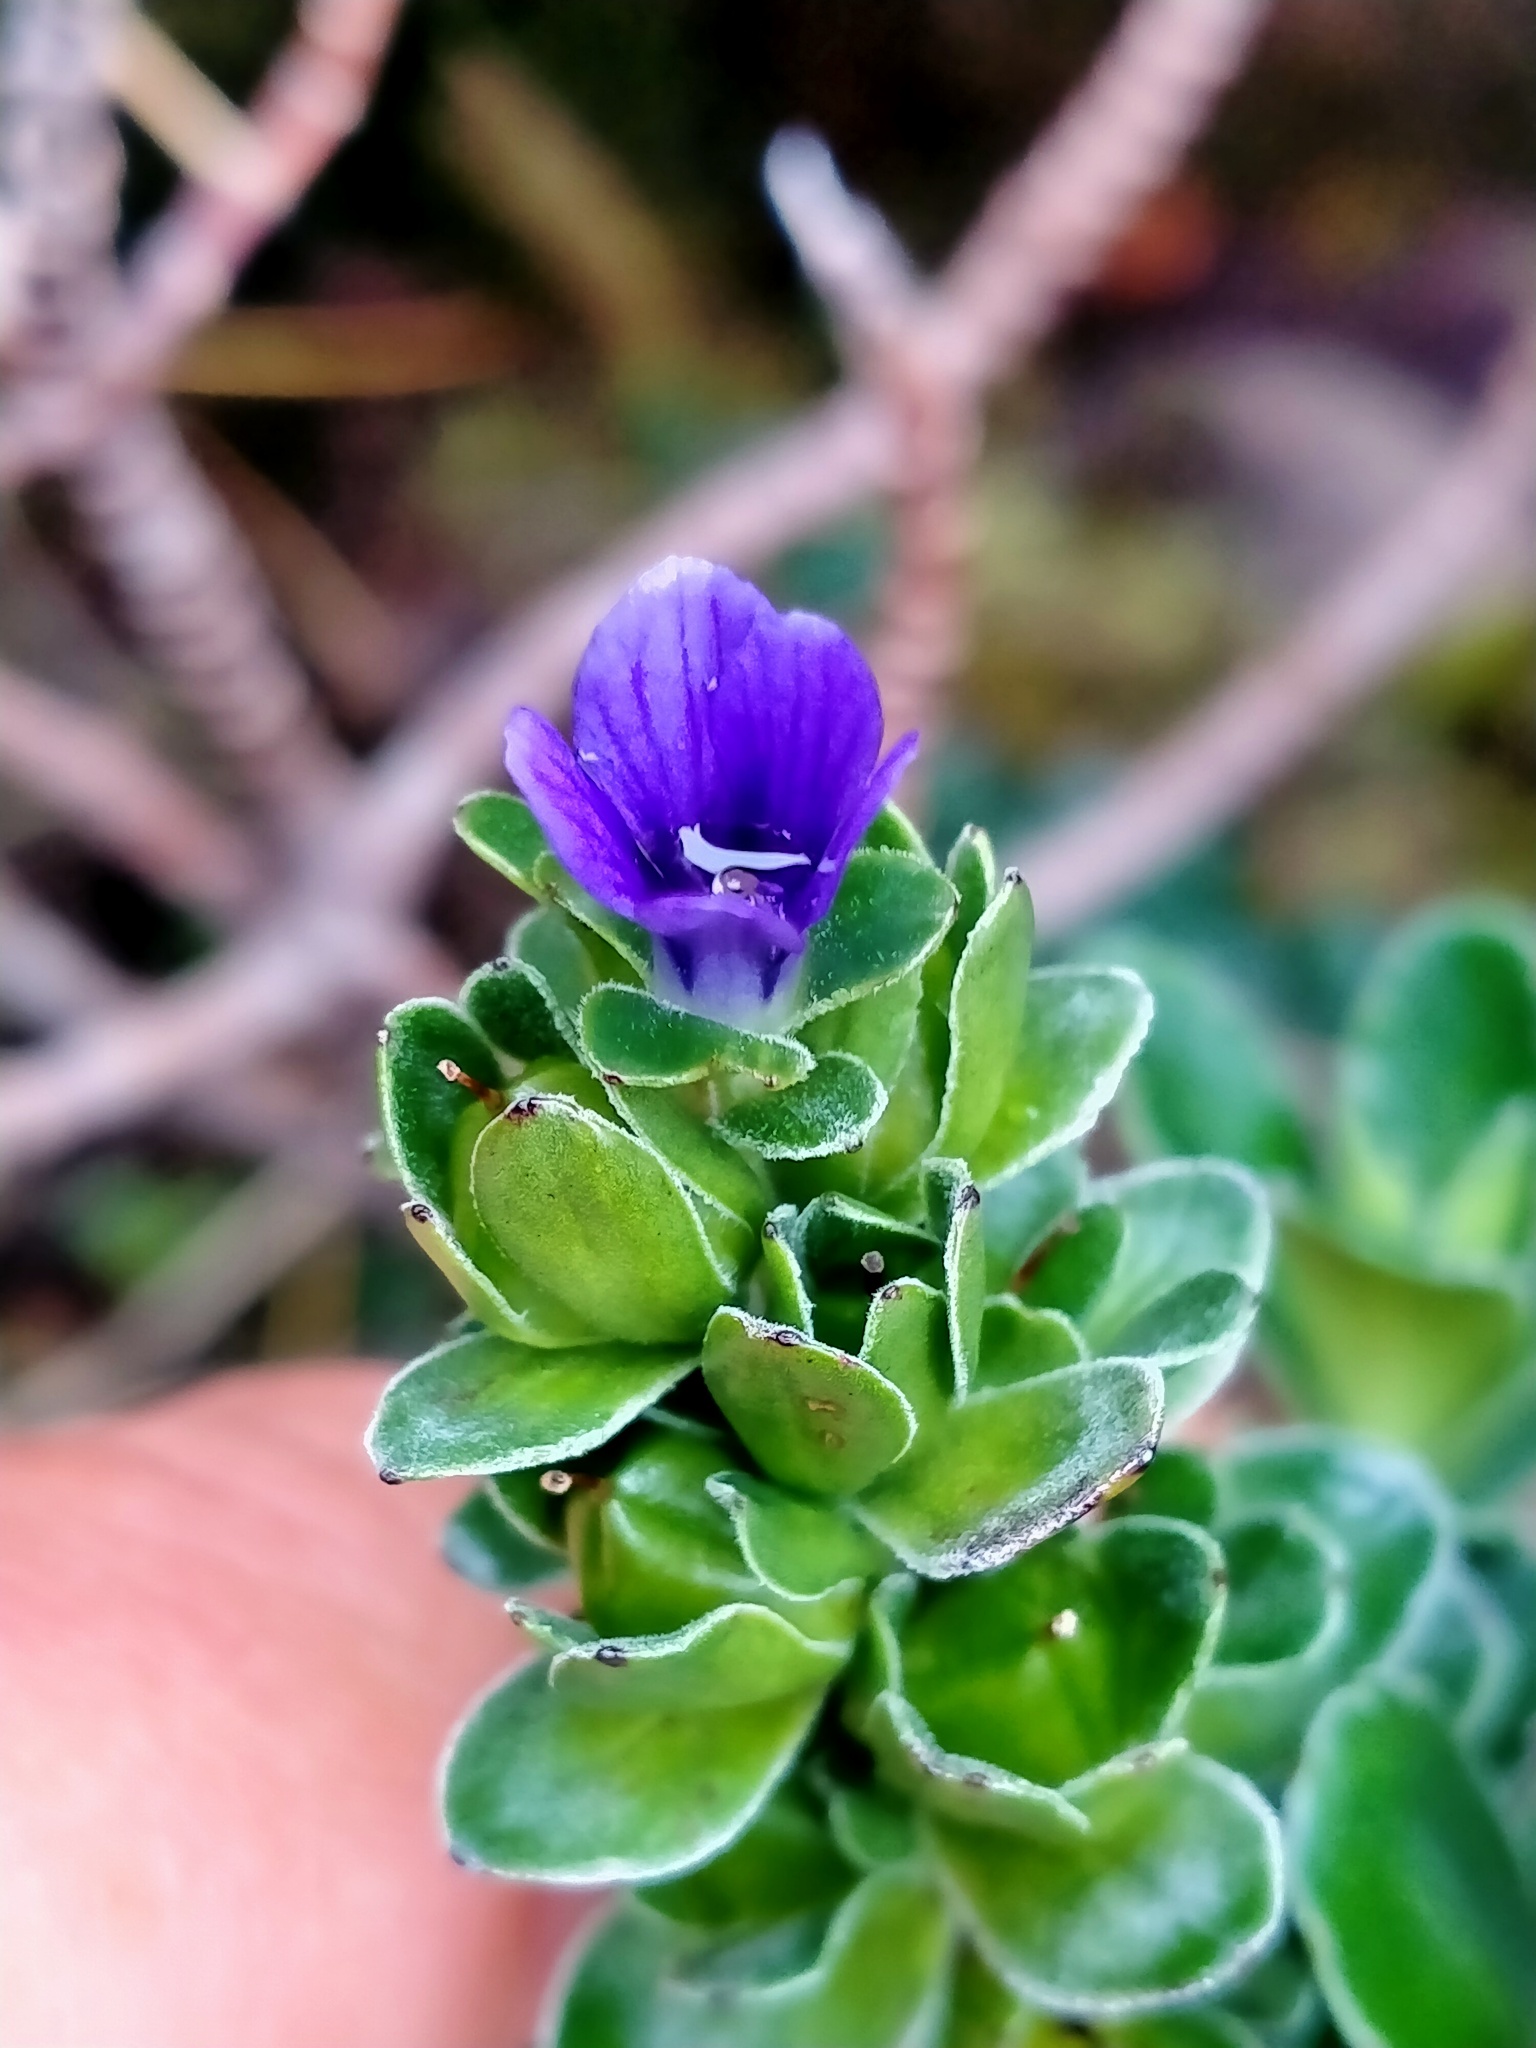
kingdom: Plantae
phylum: Tracheophyta
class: Magnoliopsida
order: Lamiales
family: Plantaginaceae
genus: Veronica
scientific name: Veronica benthamii
